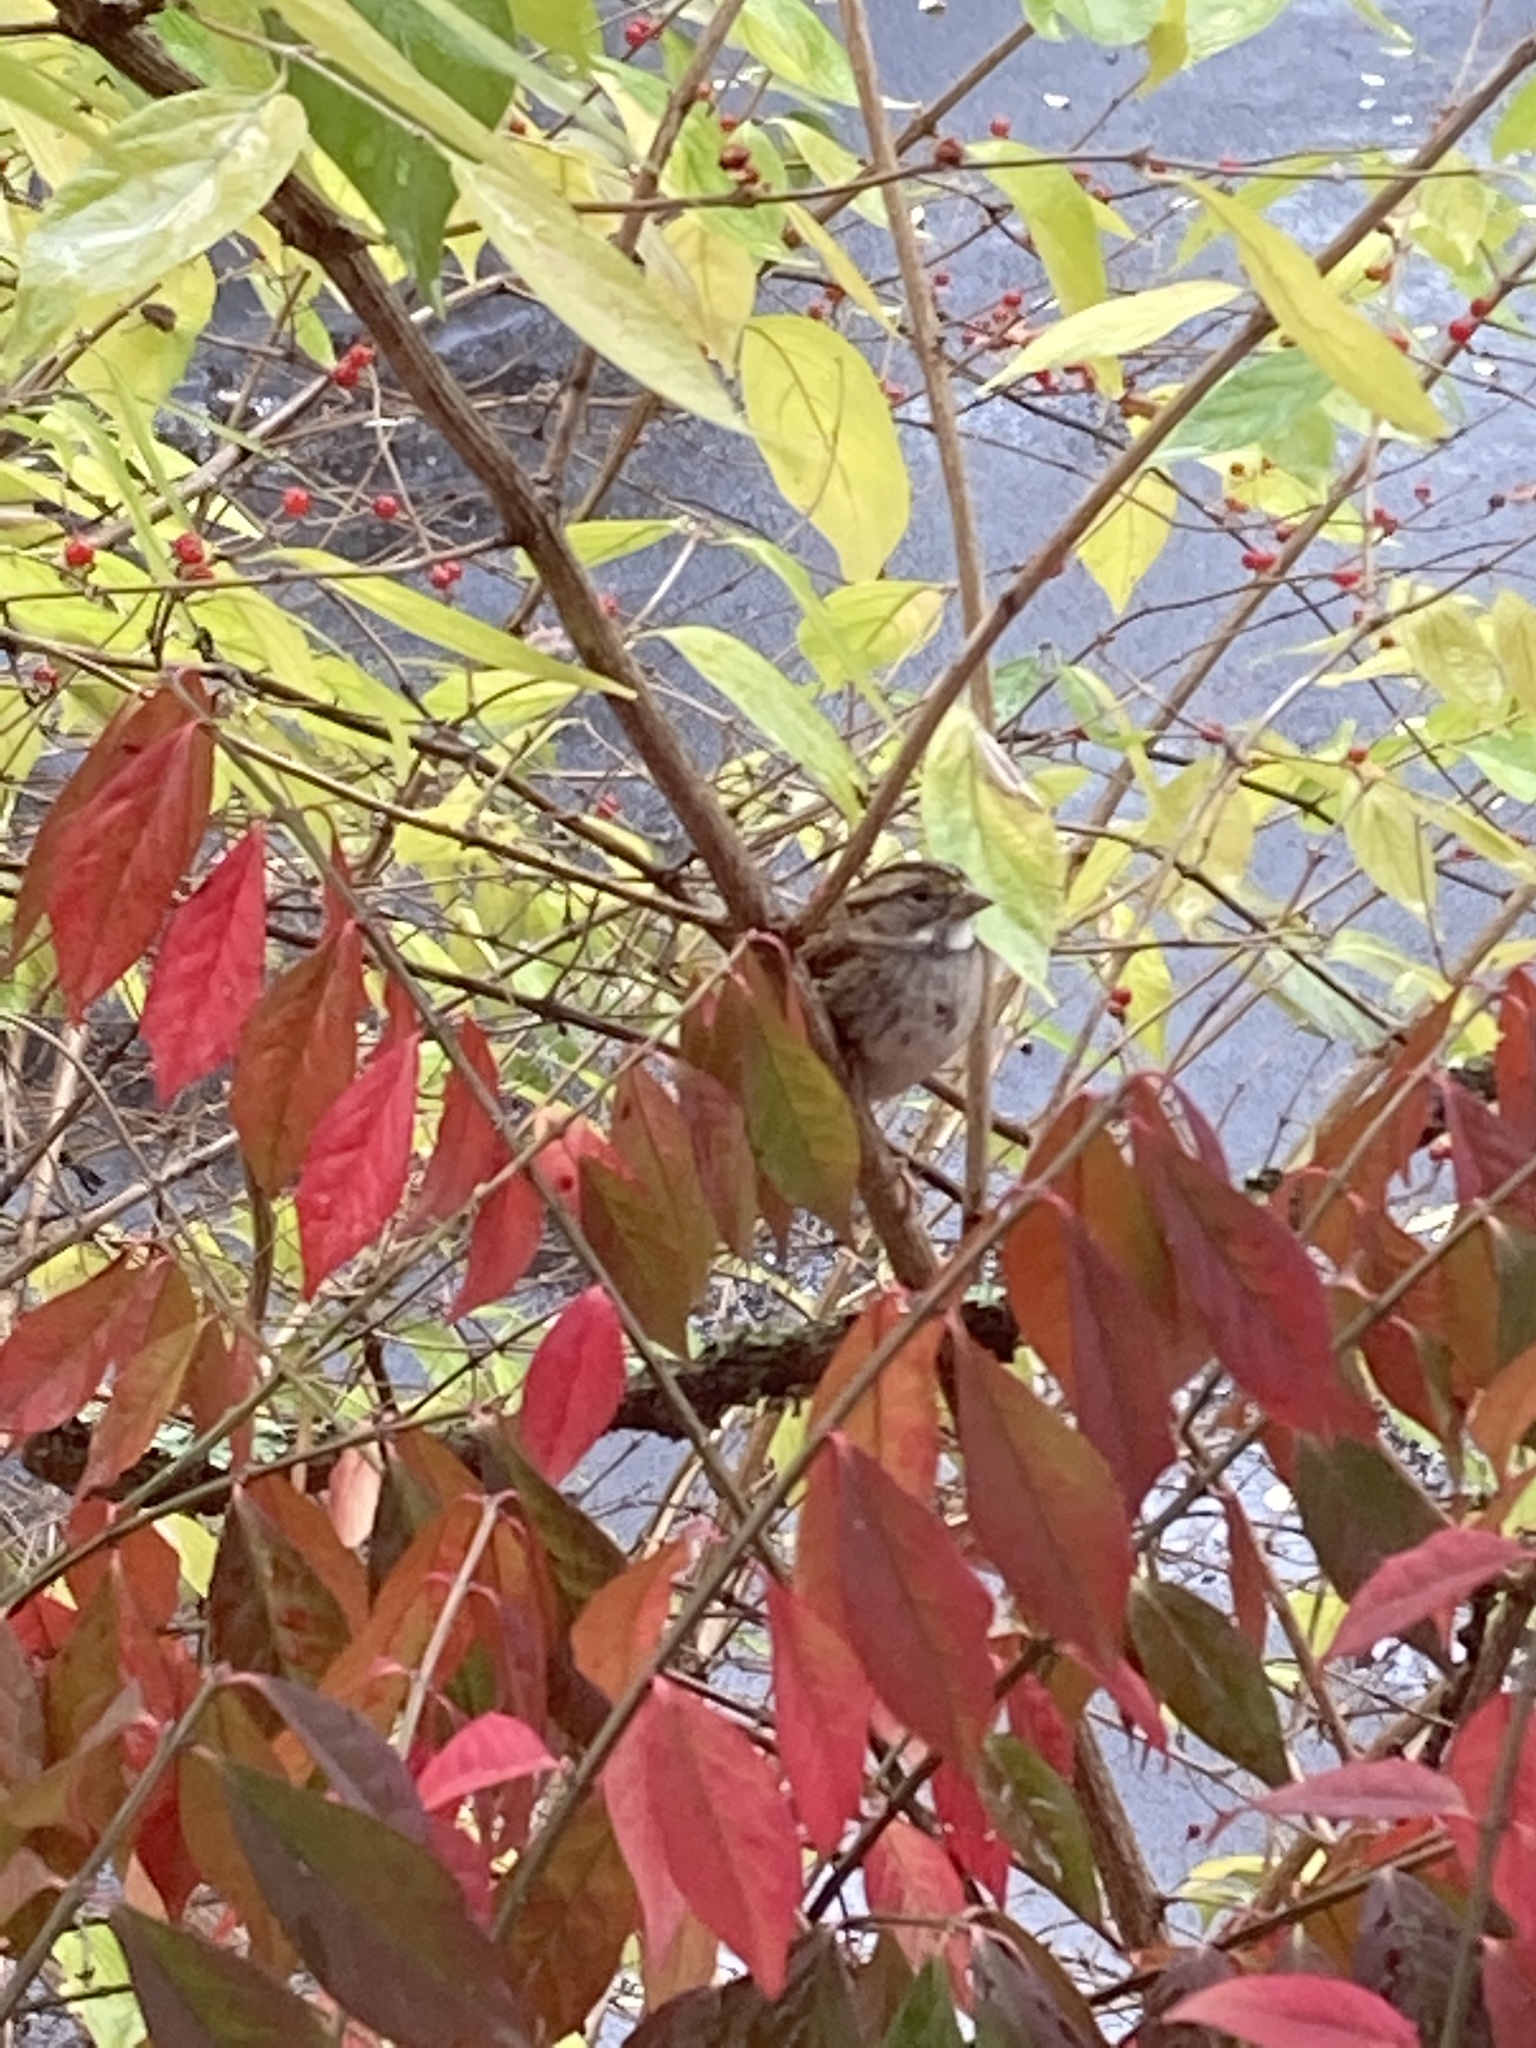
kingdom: Animalia
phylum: Chordata
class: Aves
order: Passeriformes
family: Passerellidae
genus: Melospiza
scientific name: Melospiza melodia
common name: Song sparrow
